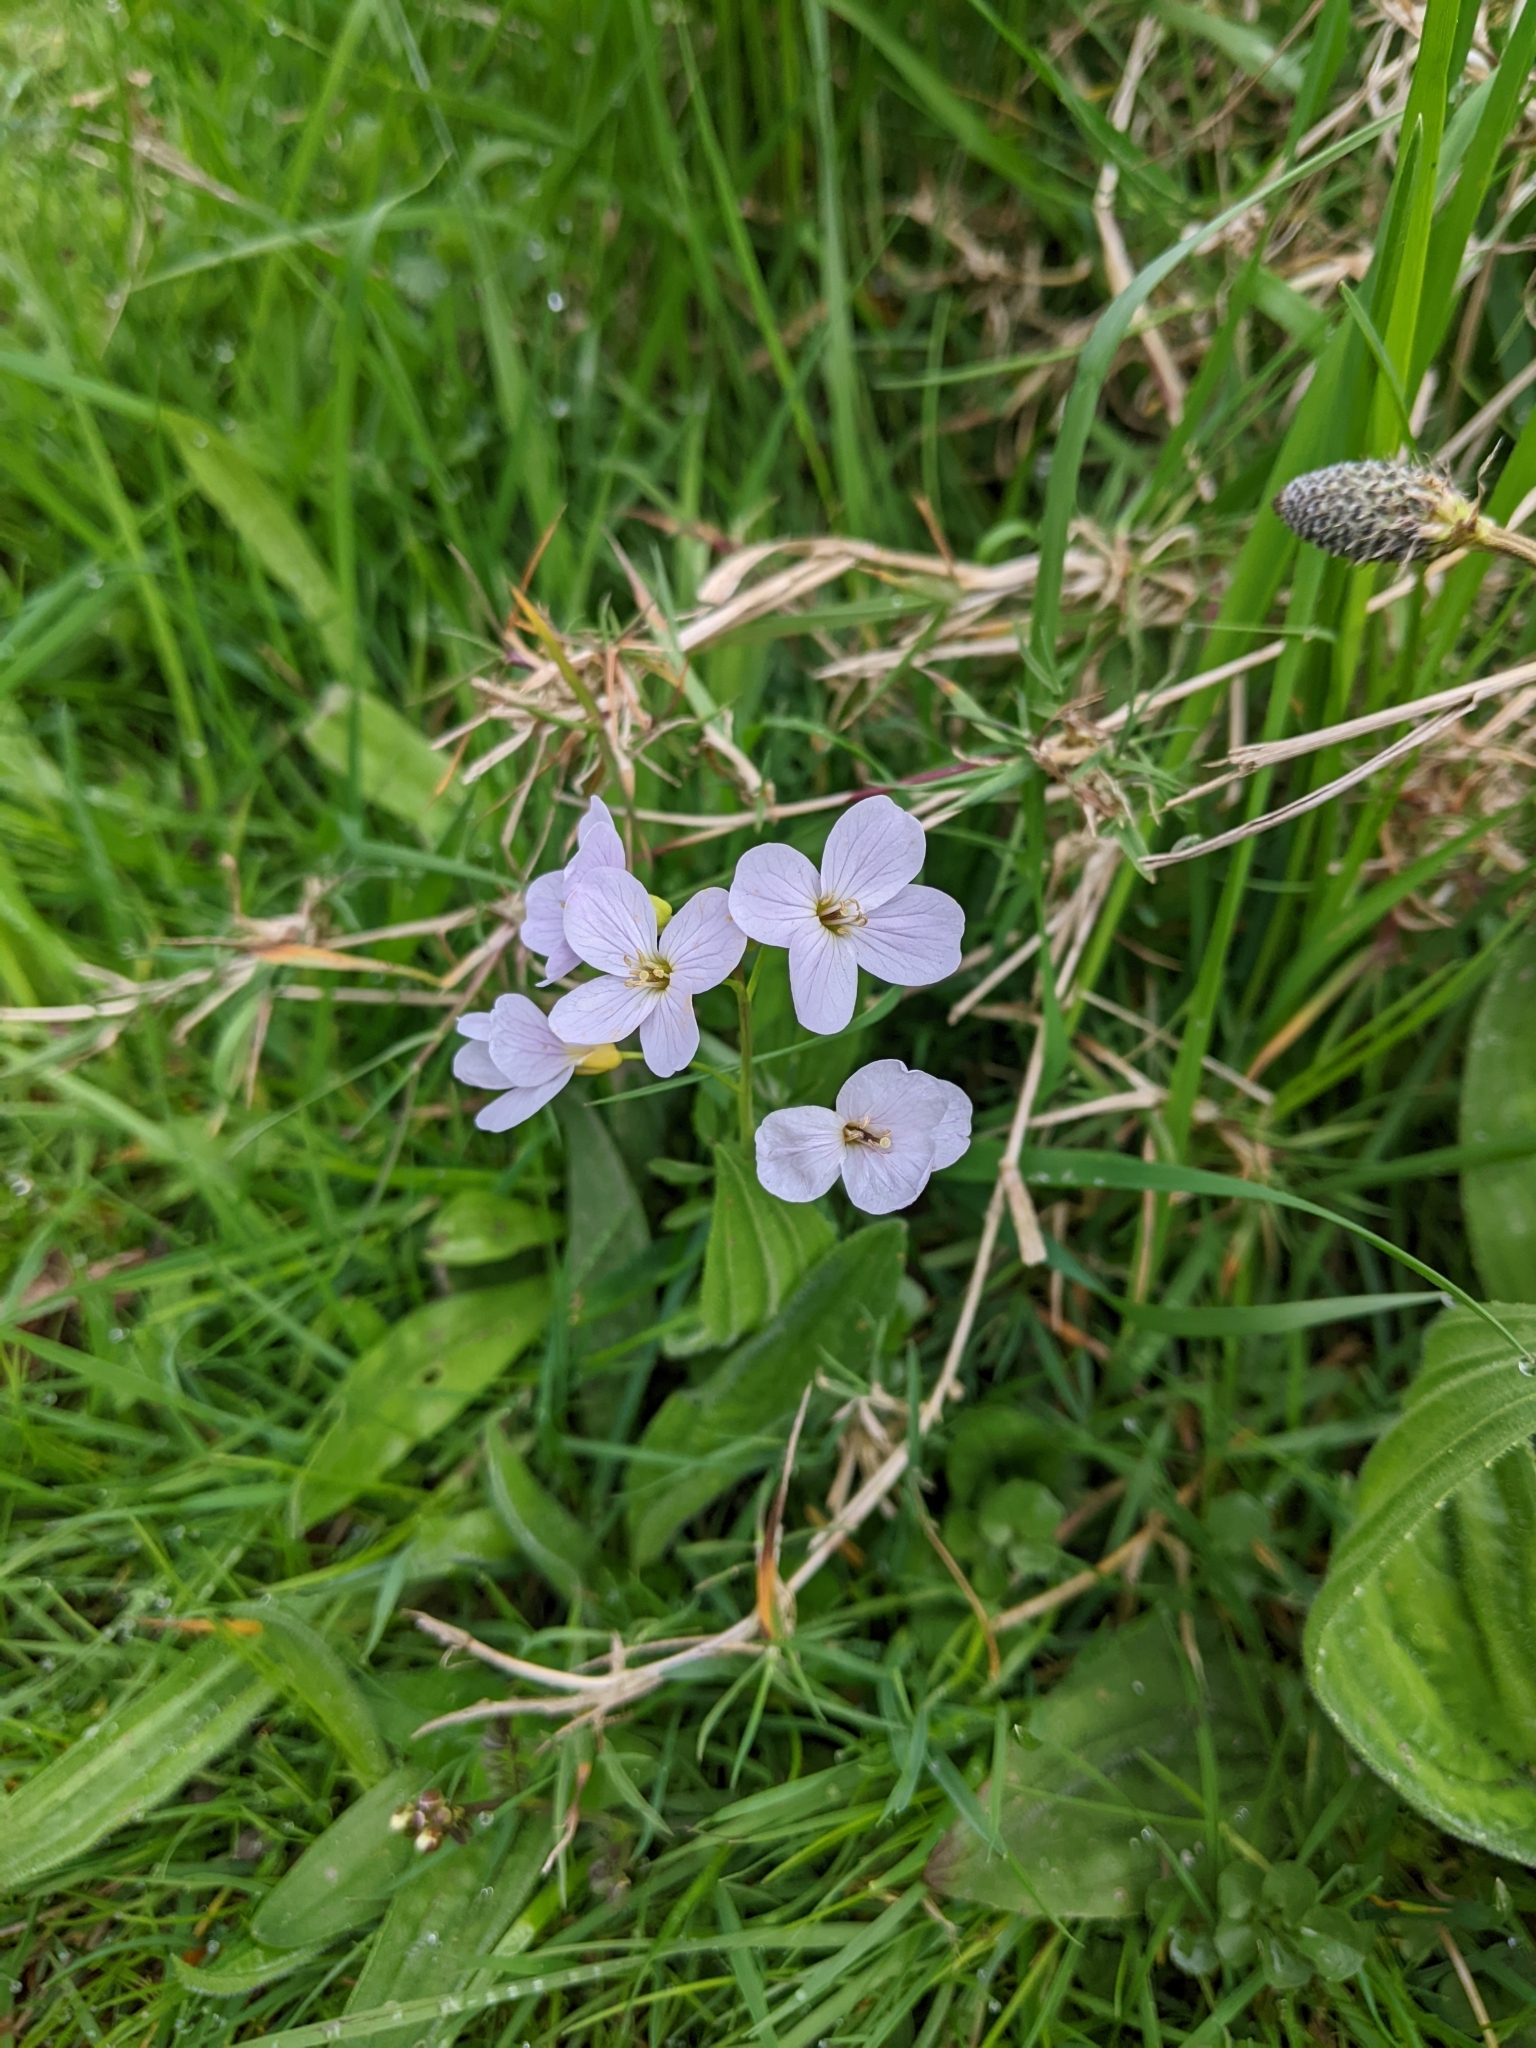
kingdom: Plantae
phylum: Tracheophyta
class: Magnoliopsida
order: Brassicales
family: Brassicaceae
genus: Cardamine
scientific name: Cardamine pratensis
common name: Cuckoo flower
